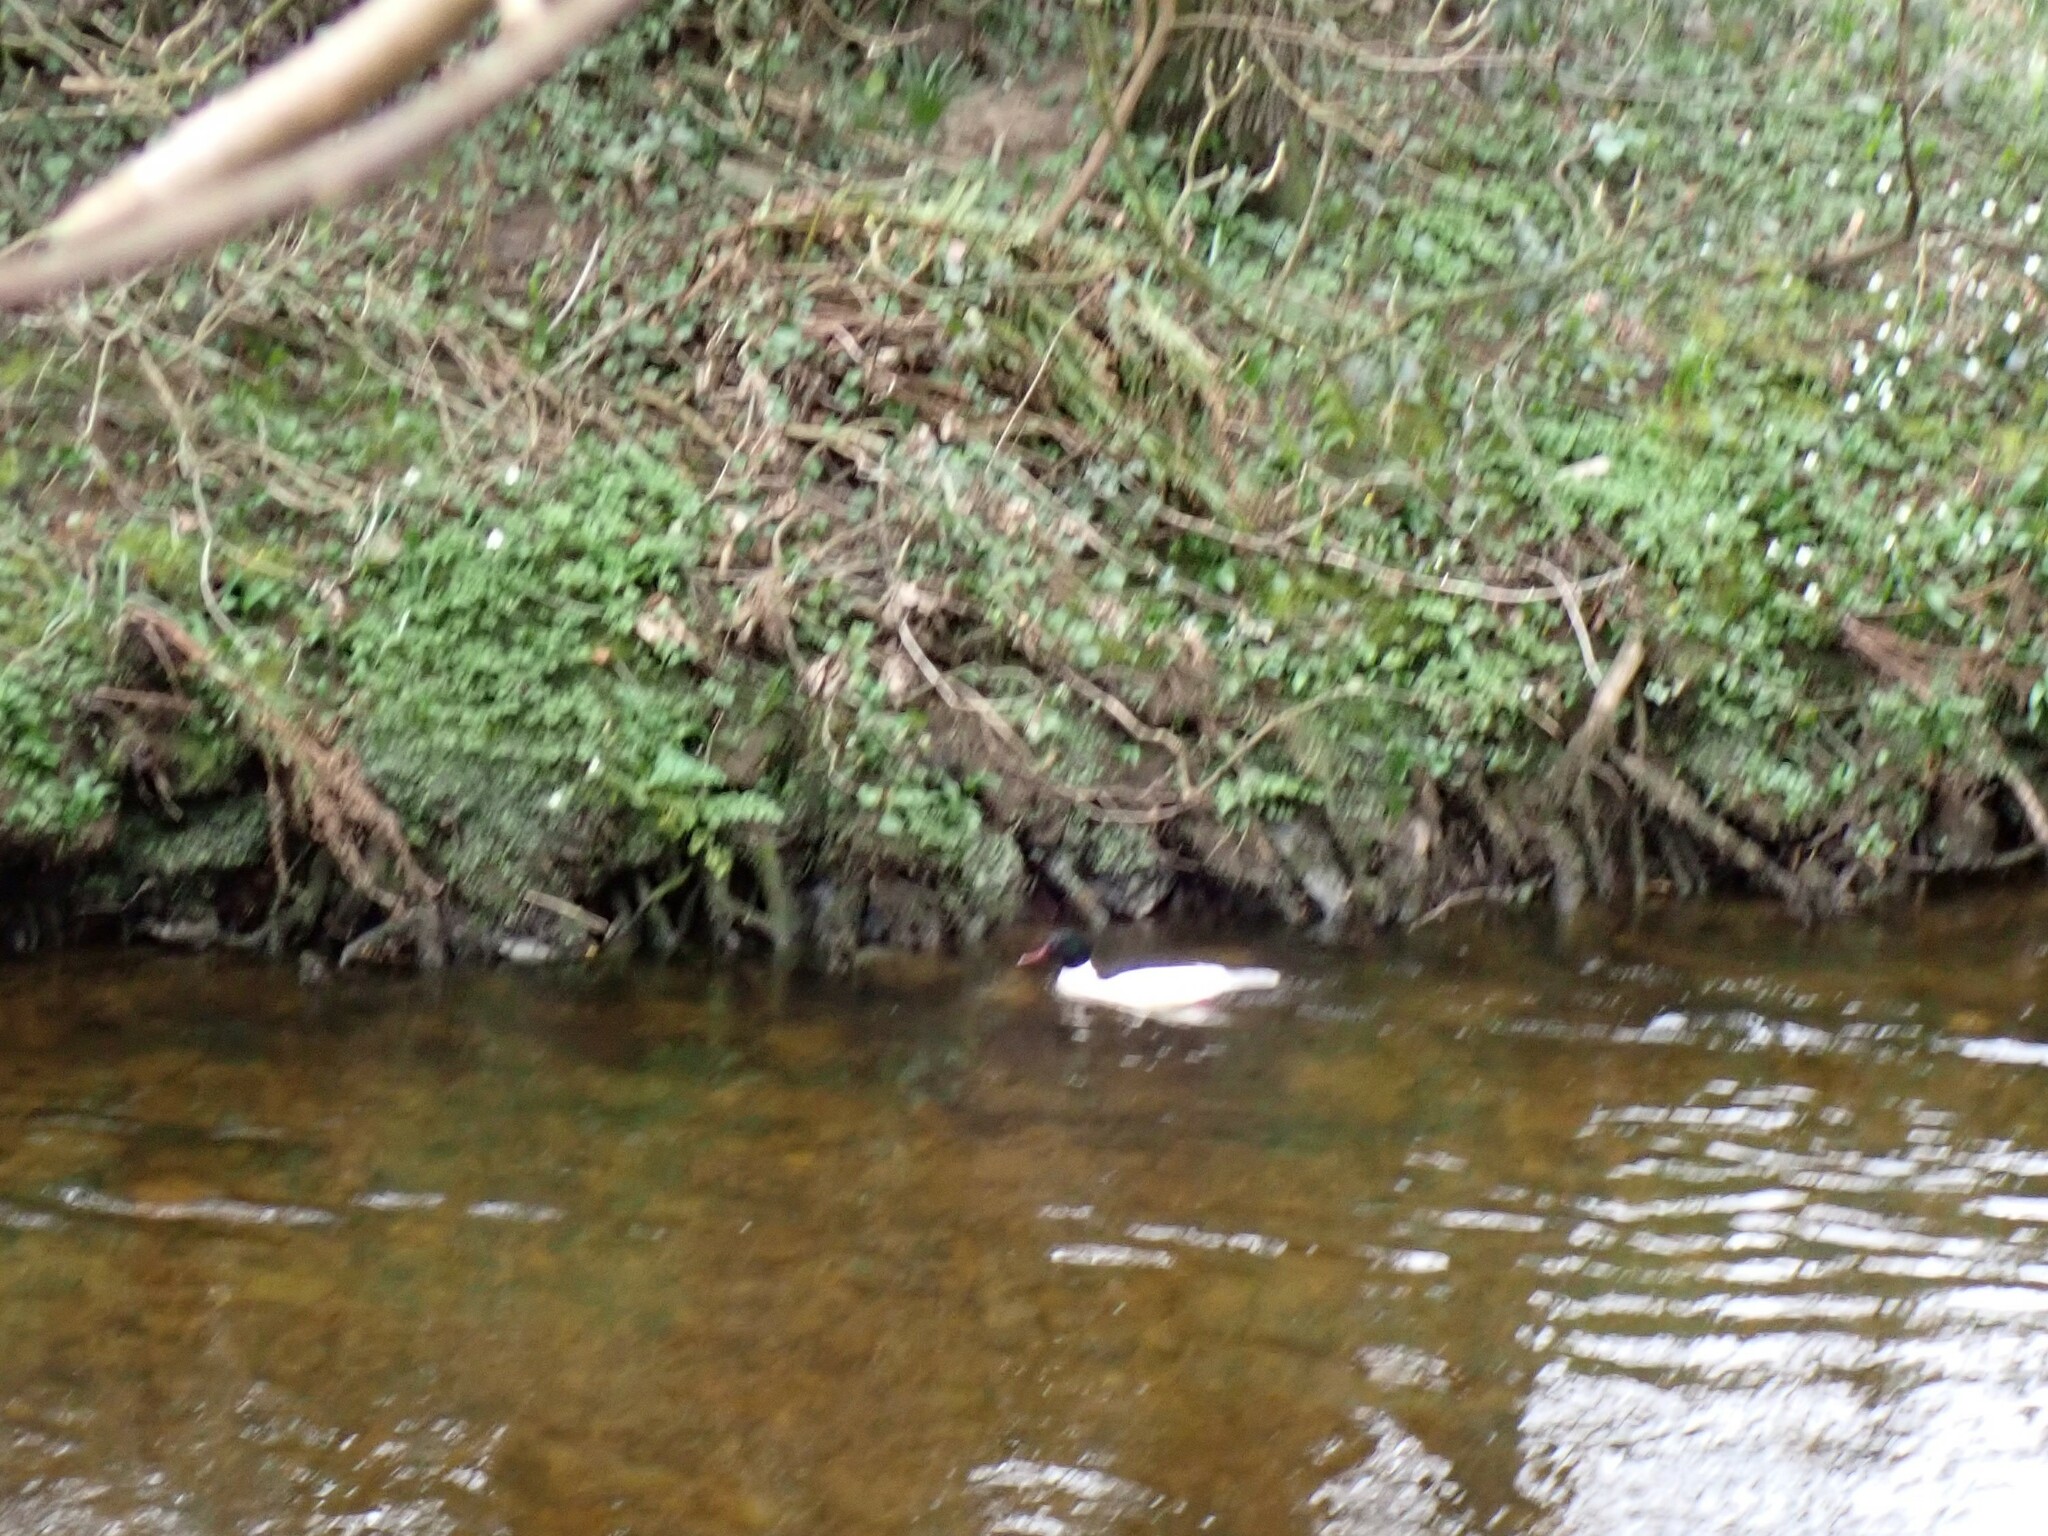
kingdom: Animalia
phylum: Chordata
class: Aves
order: Anseriformes
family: Anatidae
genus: Mergus
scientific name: Mergus merganser
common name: Common merganser
